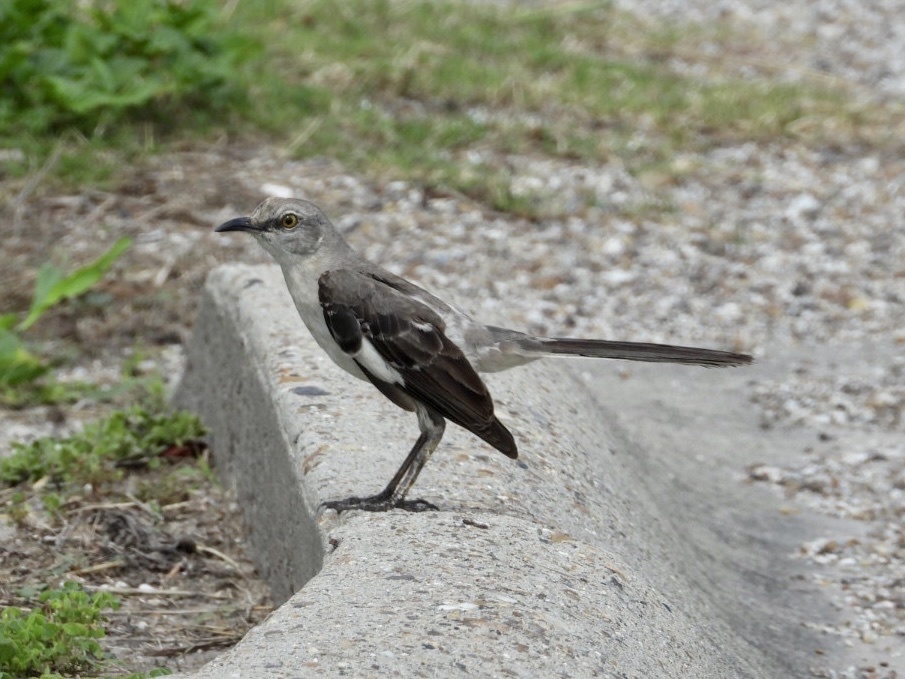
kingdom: Animalia
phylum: Chordata
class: Aves
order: Passeriformes
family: Mimidae
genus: Mimus
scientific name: Mimus polyglottos
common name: Northern mockingbird
